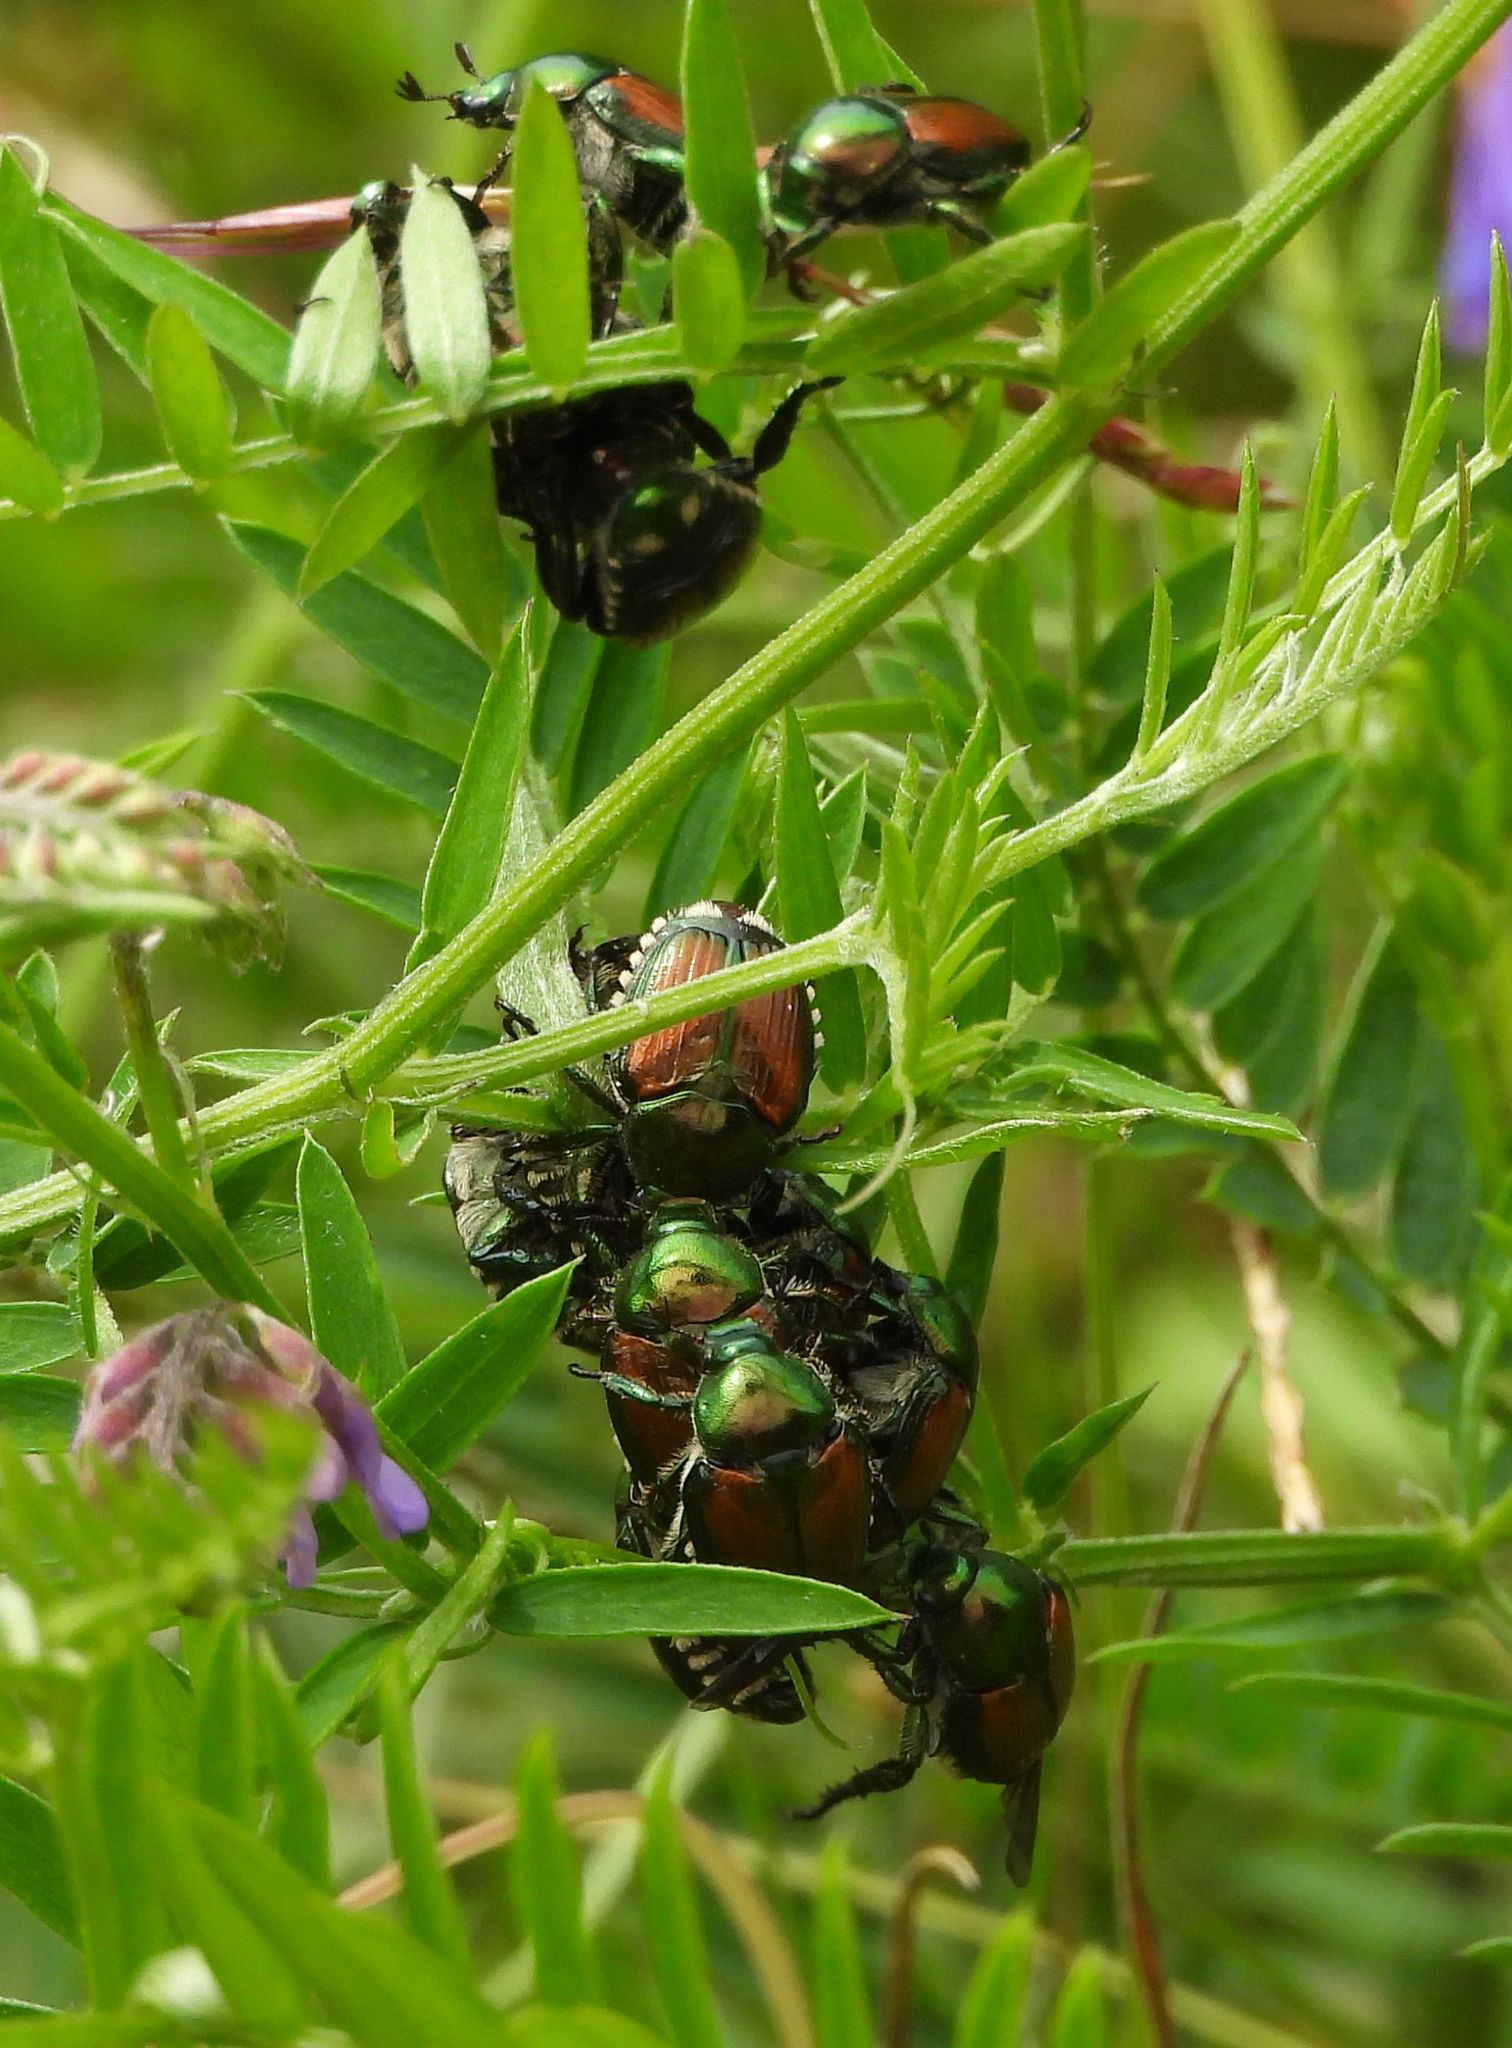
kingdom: Animalia
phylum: Arthropoda
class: Insecta
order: Coleoptera
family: Scarabaeidae
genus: Popillia
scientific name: Popillia japonica
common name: Japanese beetle
